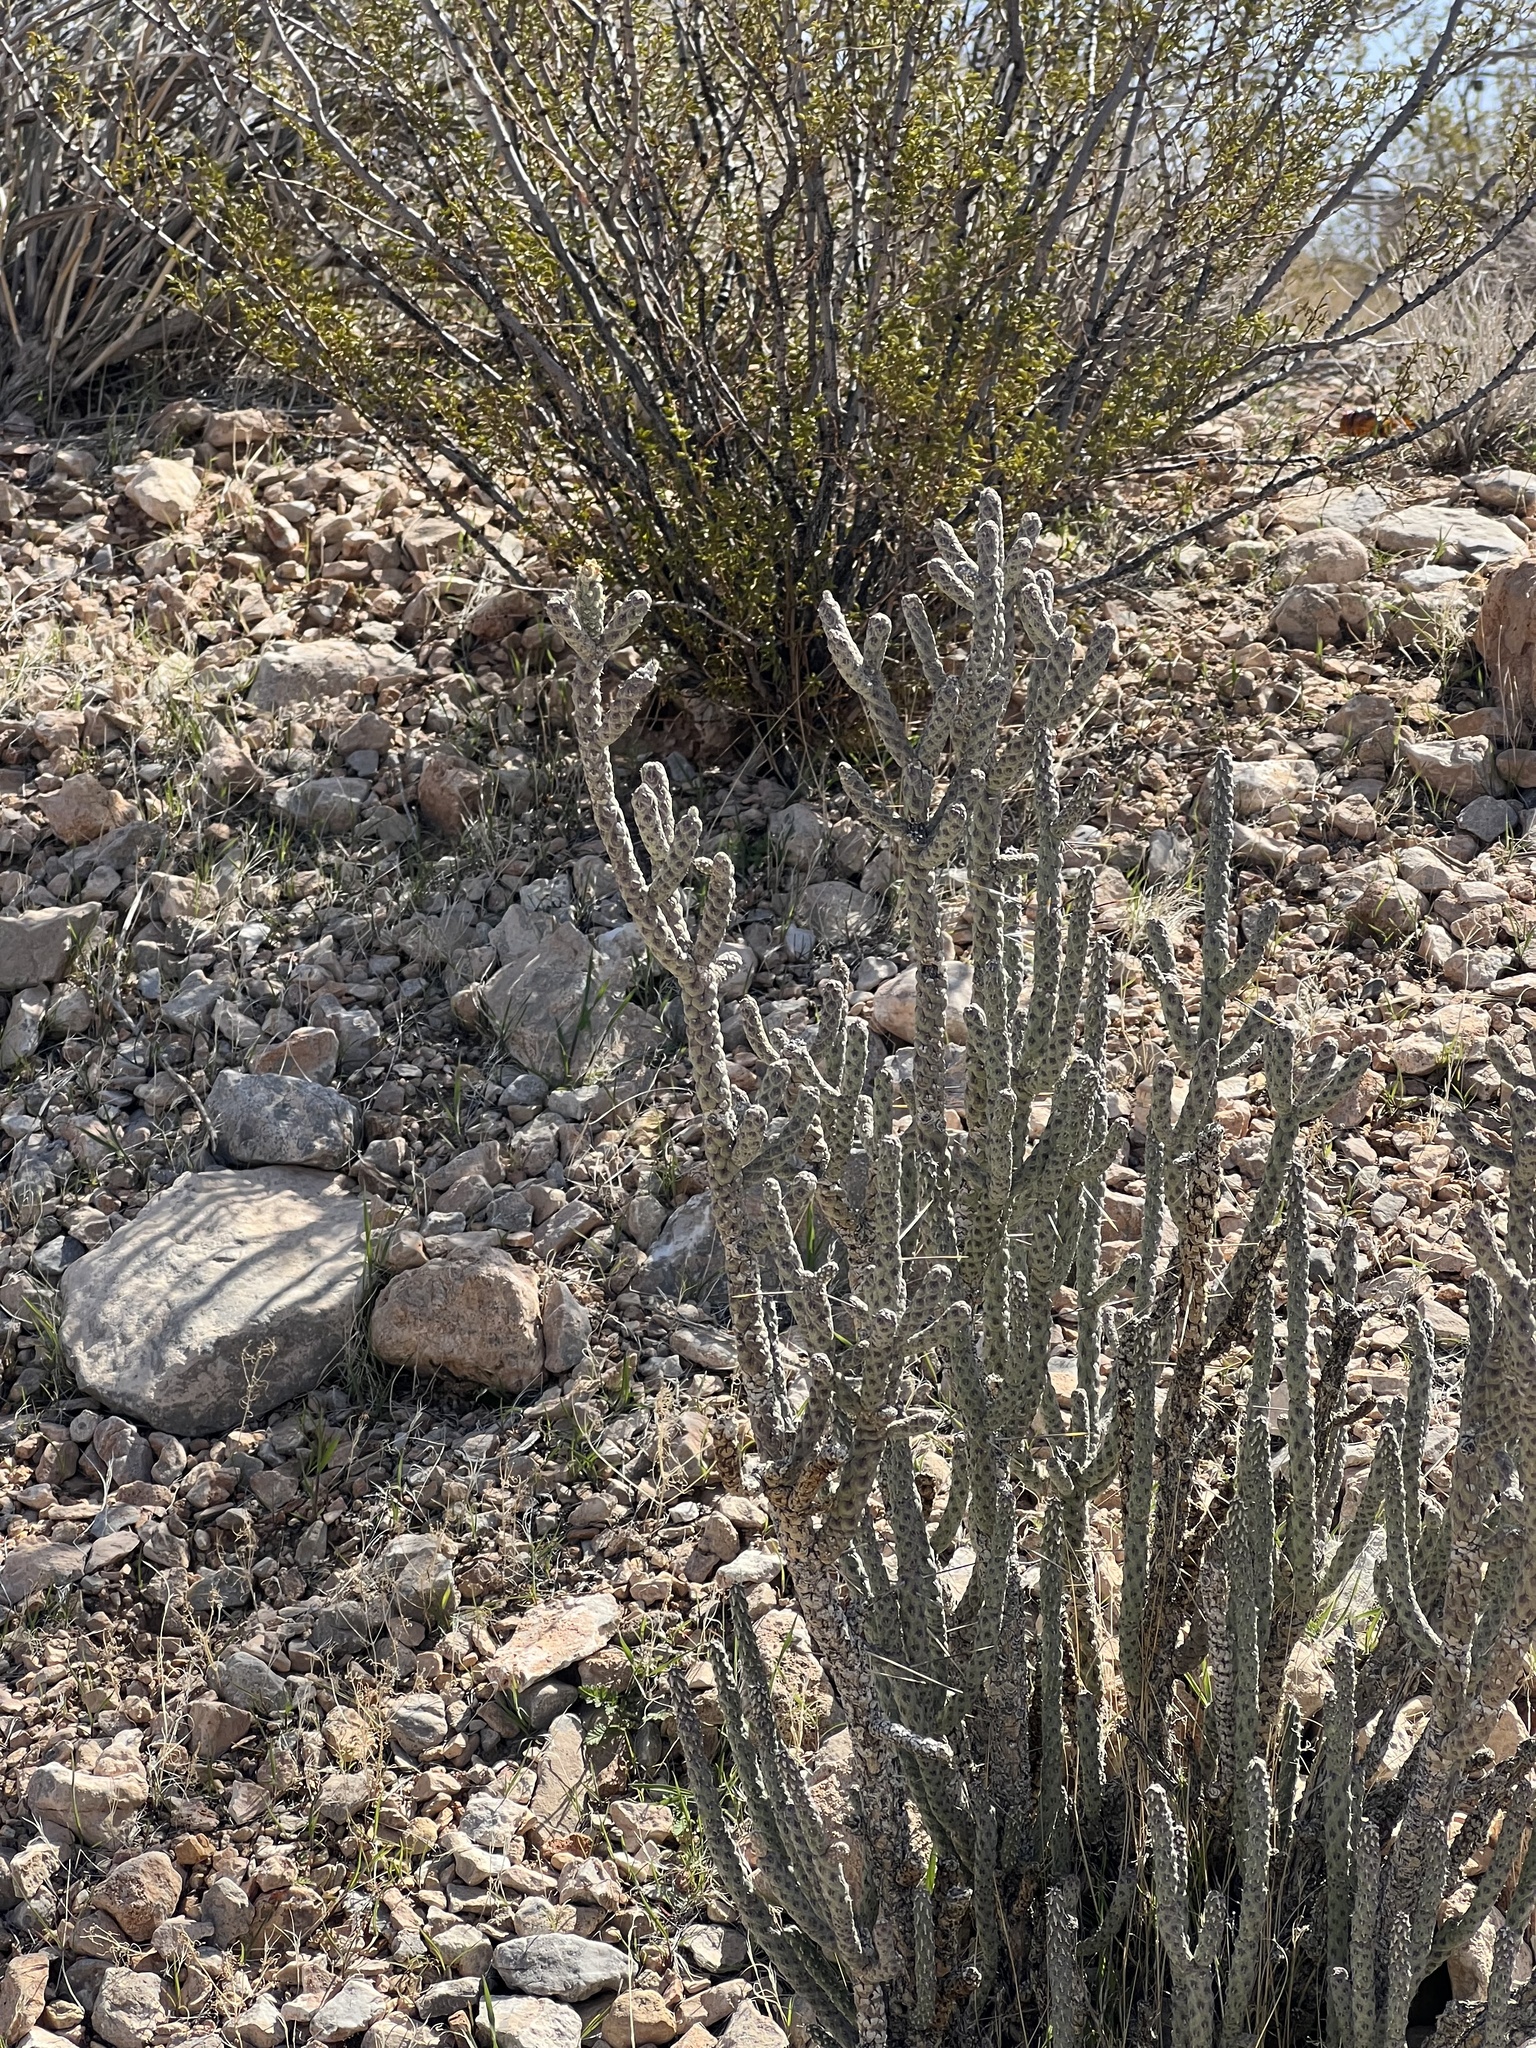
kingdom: Plantae
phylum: Tracheophyta
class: Magnoliopsida
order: Caryophyllales
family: Cactaceae
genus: Cylindropuntia
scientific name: Cylindropuntia ramosissima
